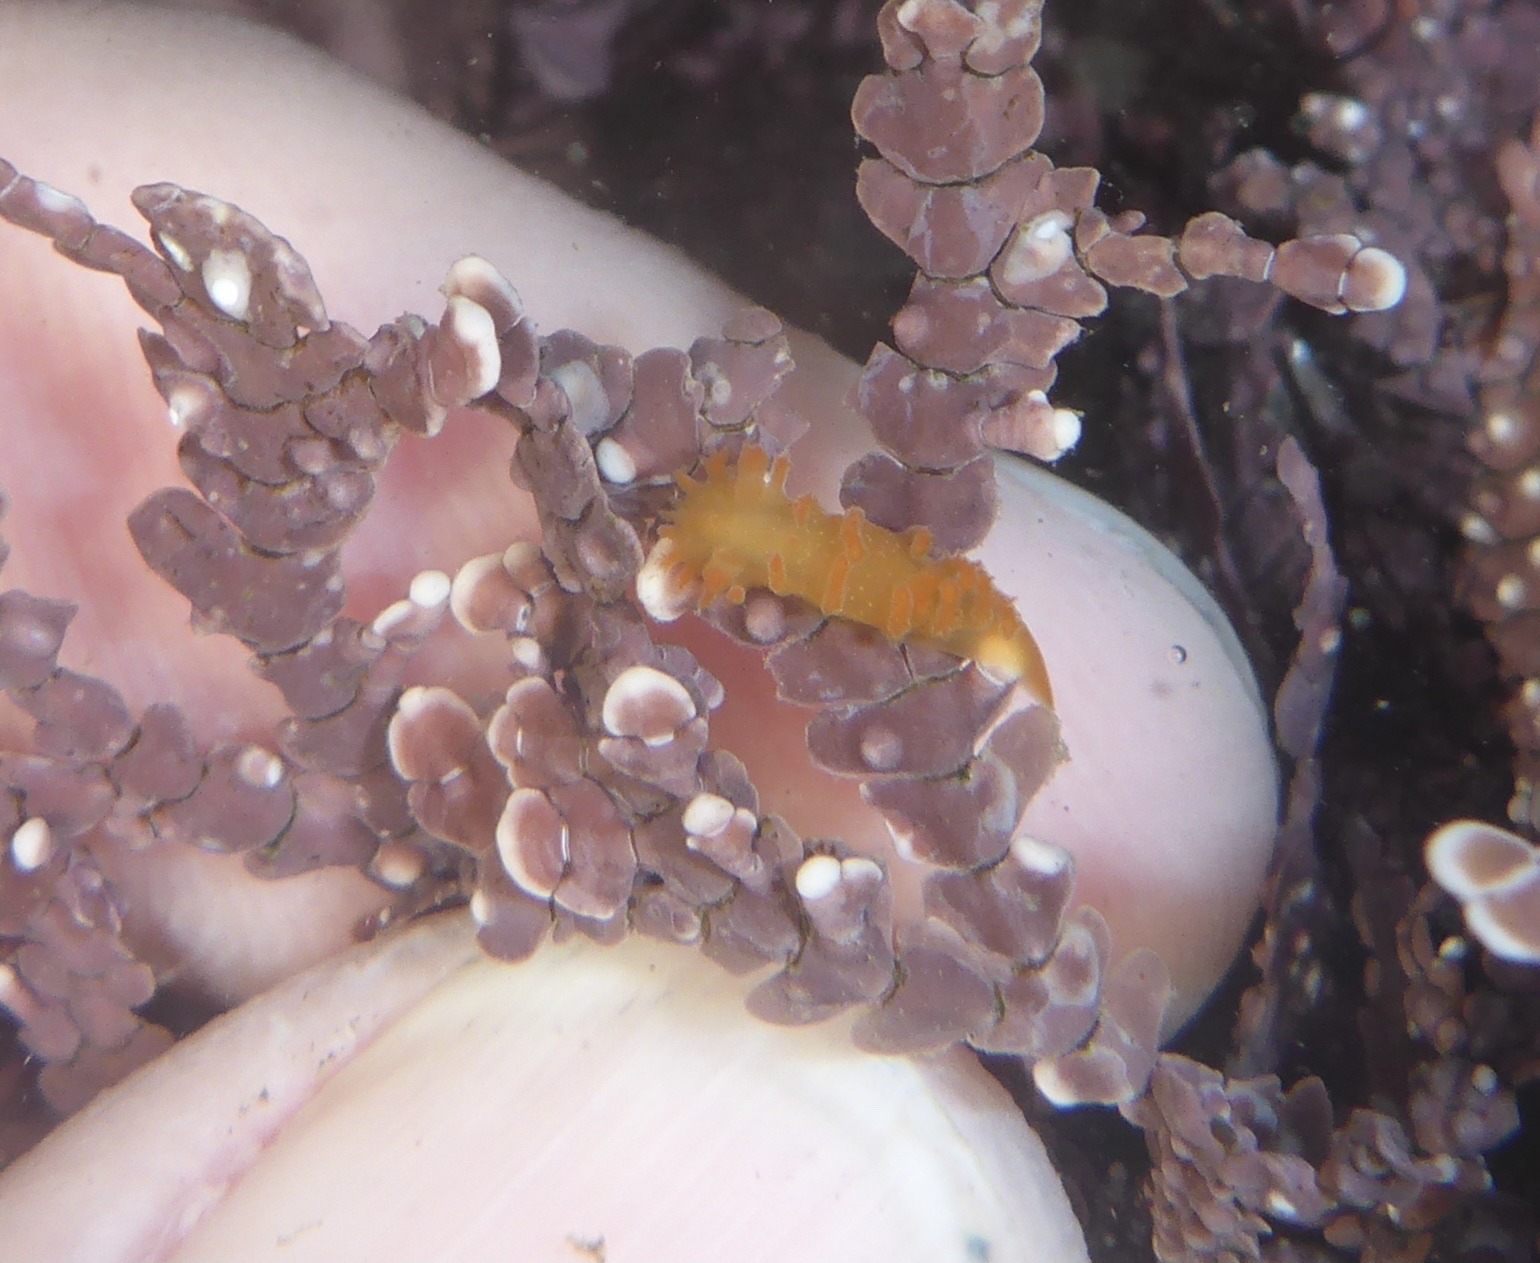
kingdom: Animalia
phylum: Mollusca
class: Gastropoda
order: Nudibranchia
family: Polyceridae
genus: Triopha
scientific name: Triopha maculata
